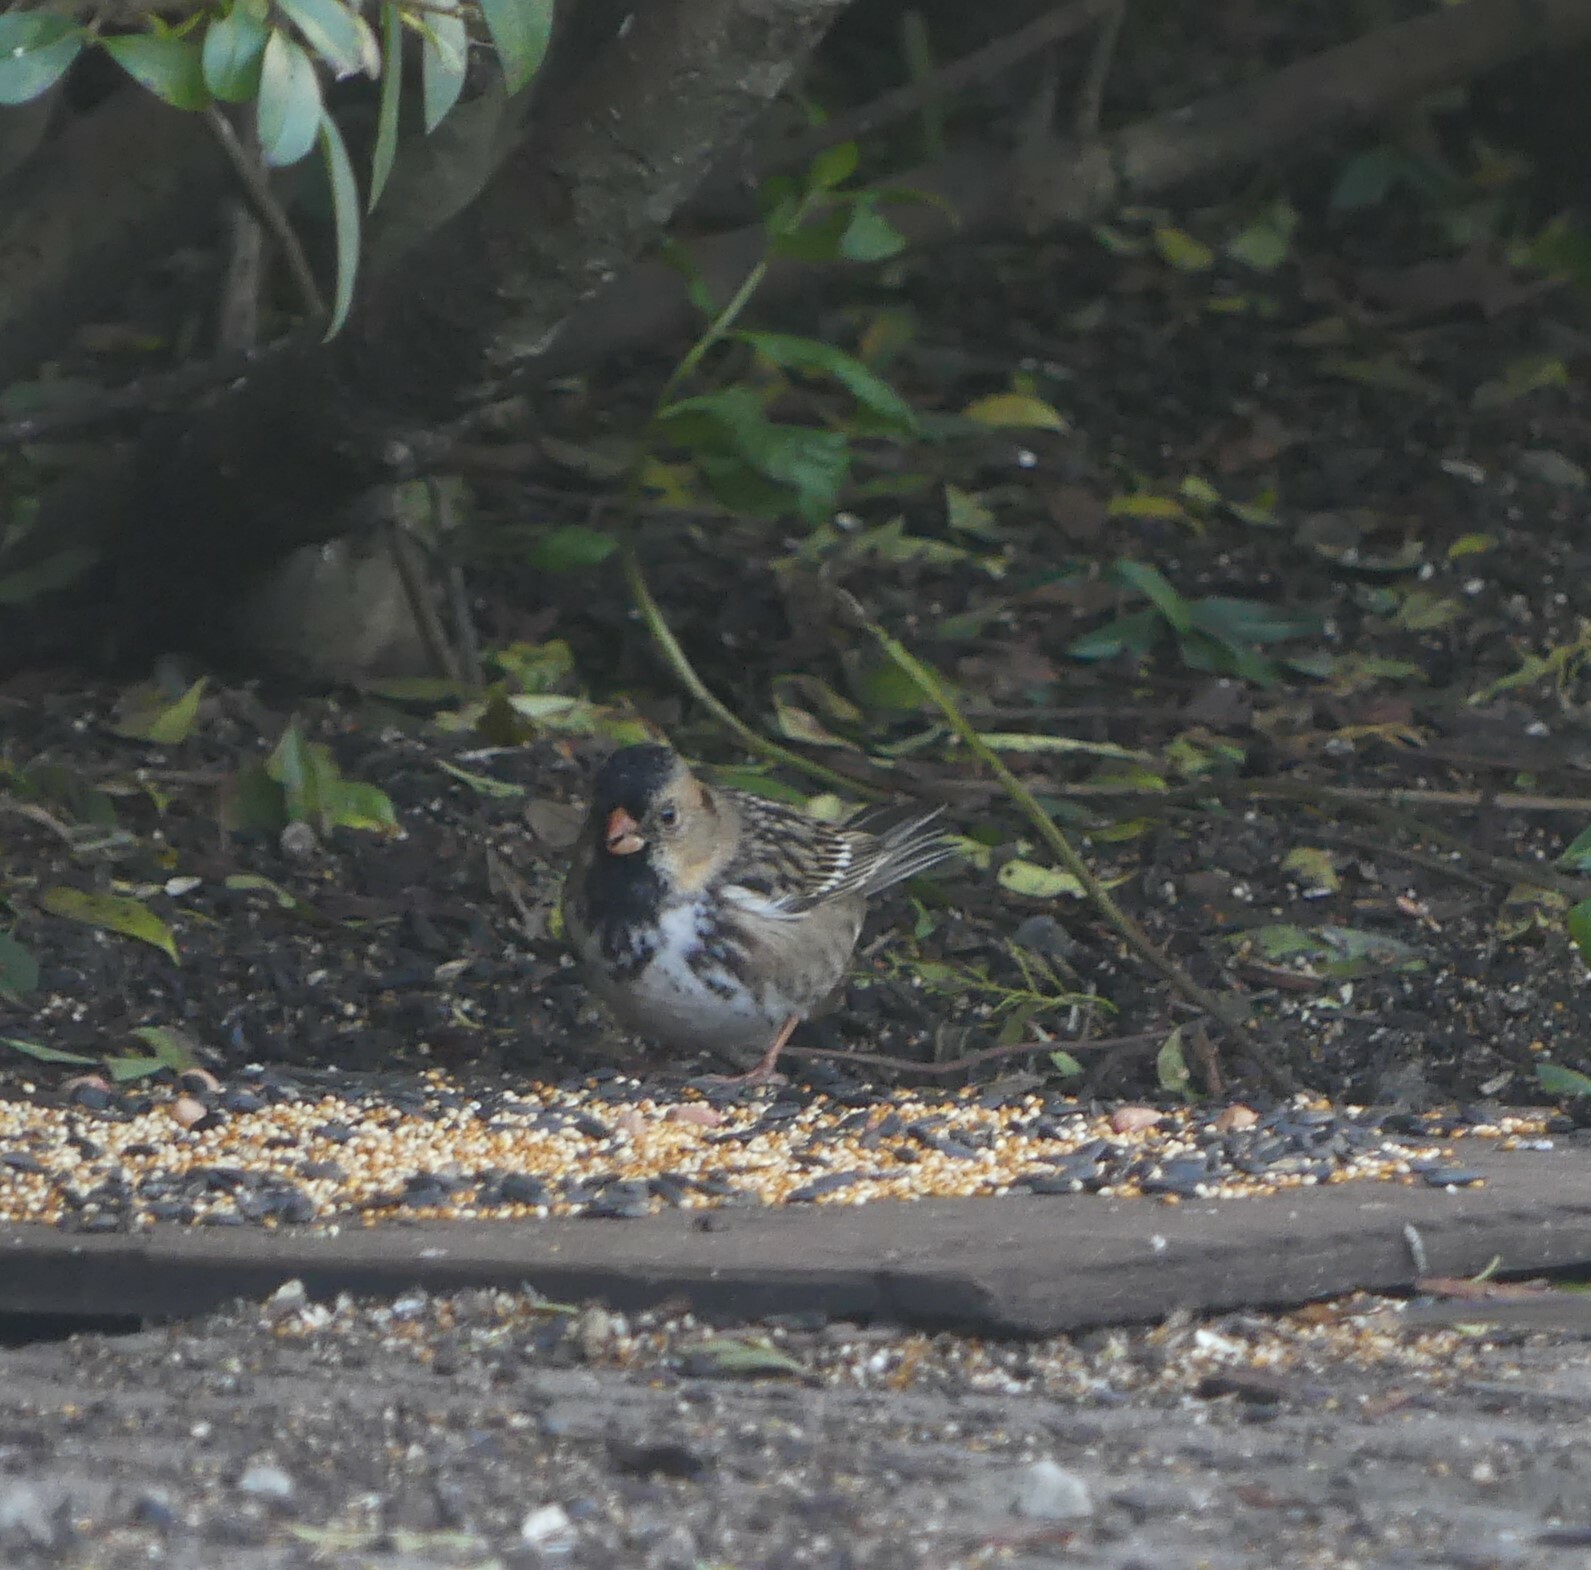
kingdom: Animalia
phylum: Chordata
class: Aves
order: Passeriformes
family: Passerellidae
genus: Zonotrichia
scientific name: Zonotrichia querula
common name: Harris's sparrow
